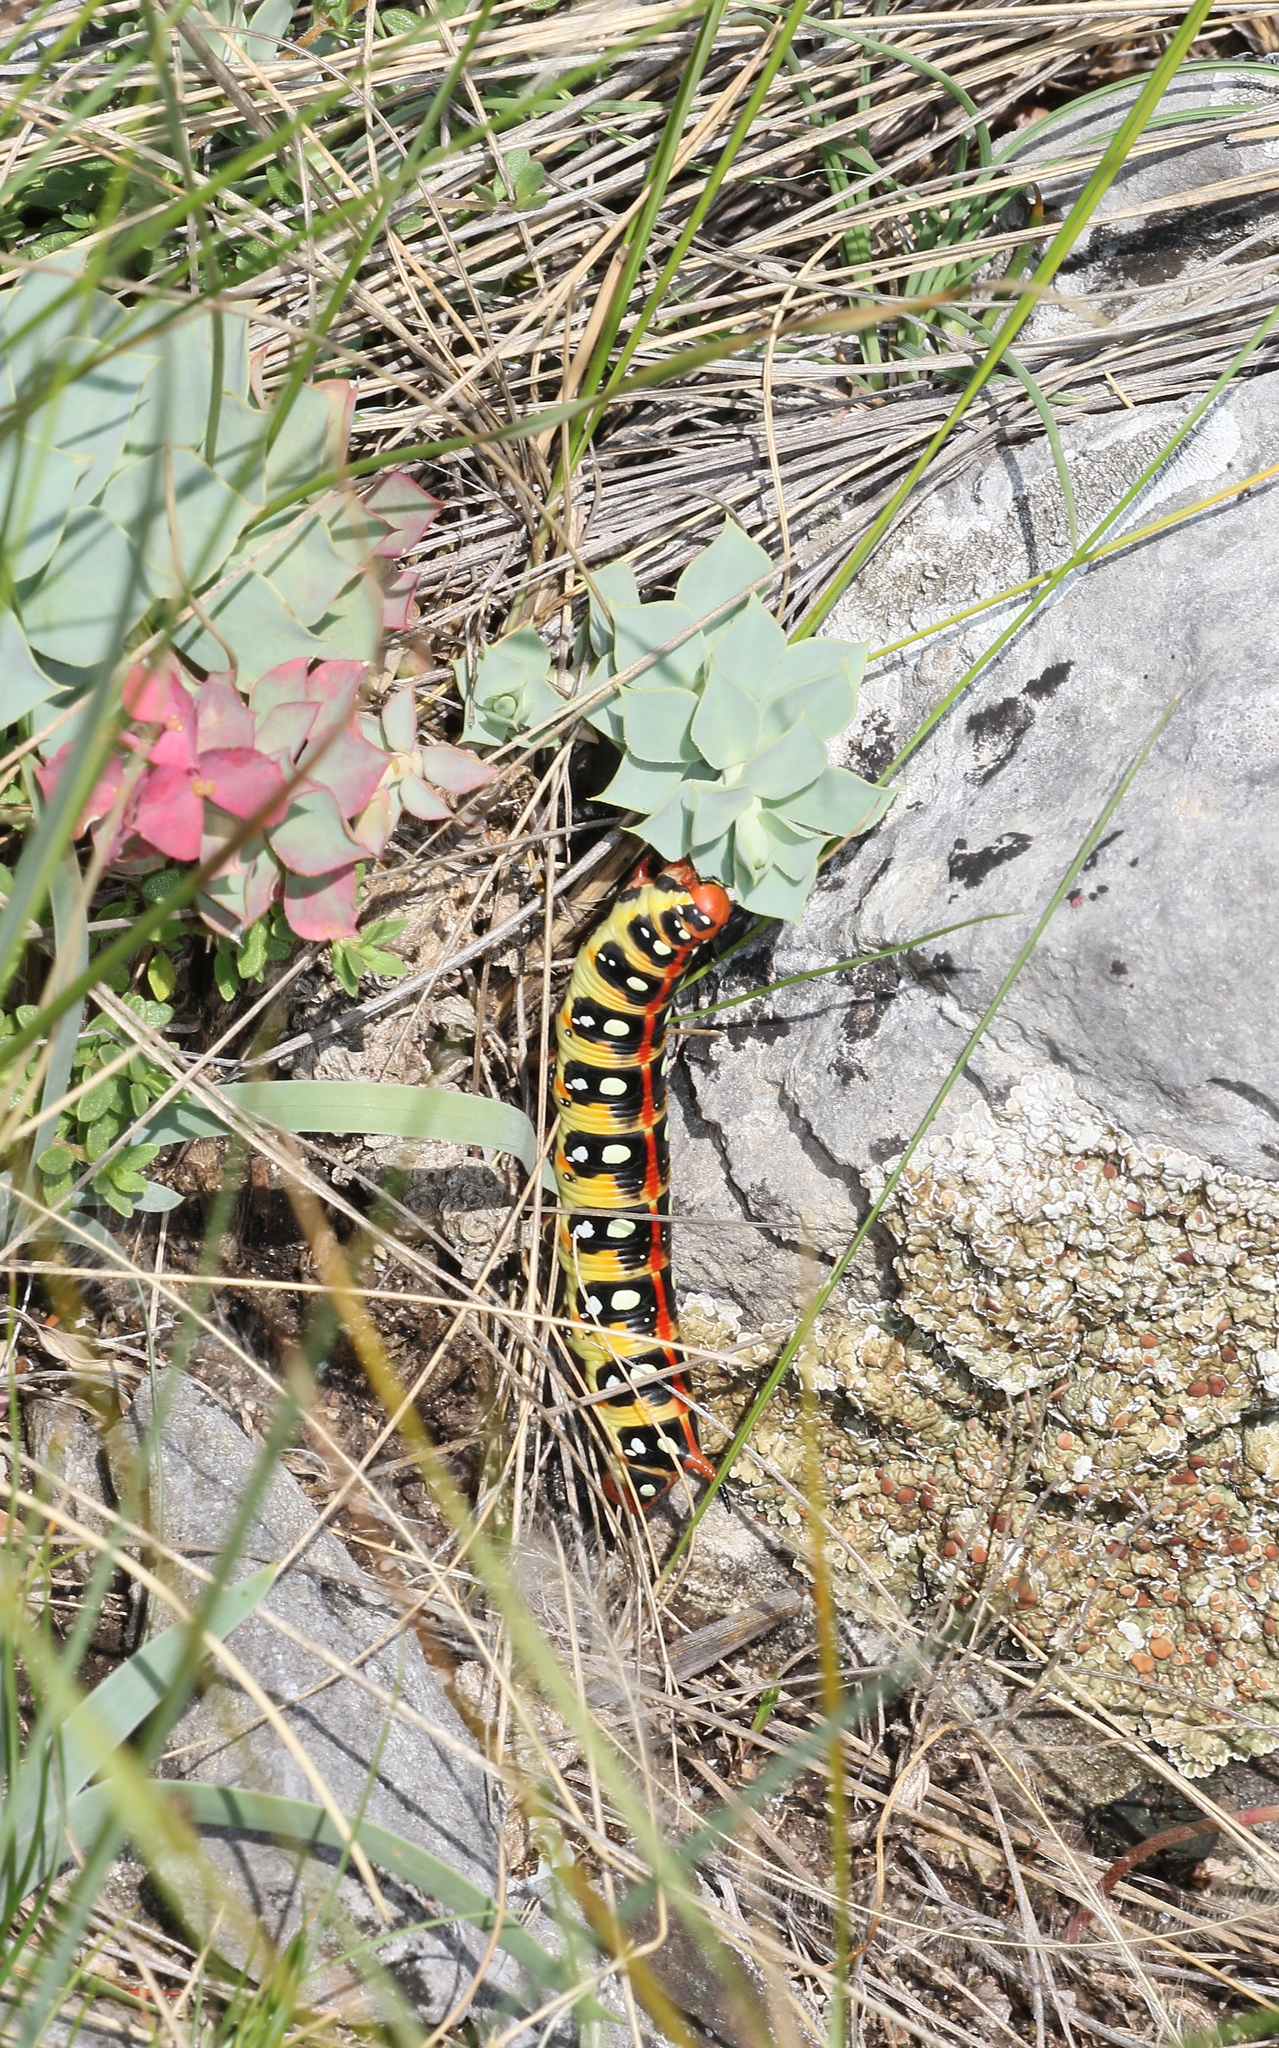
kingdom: Animalia
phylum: Arthropoda
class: Insecta
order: Lepidoptera
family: Sphingidae
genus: Hyles
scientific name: Hyles euphorbiae
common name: Spurge hawk-moth
